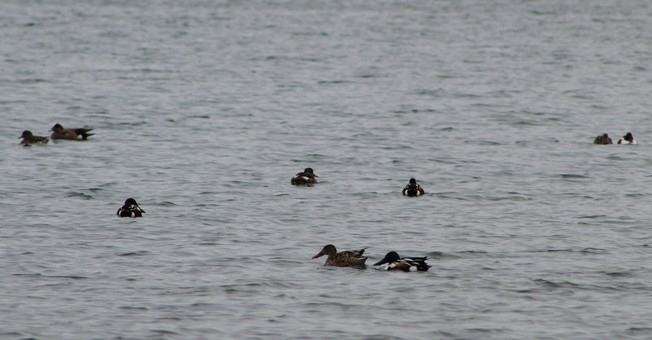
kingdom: Animalia
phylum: Chordata
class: Aves
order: Anseriformes
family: Anatidae
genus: Spatula
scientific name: Spatula clypeata
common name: Northern shoveler
